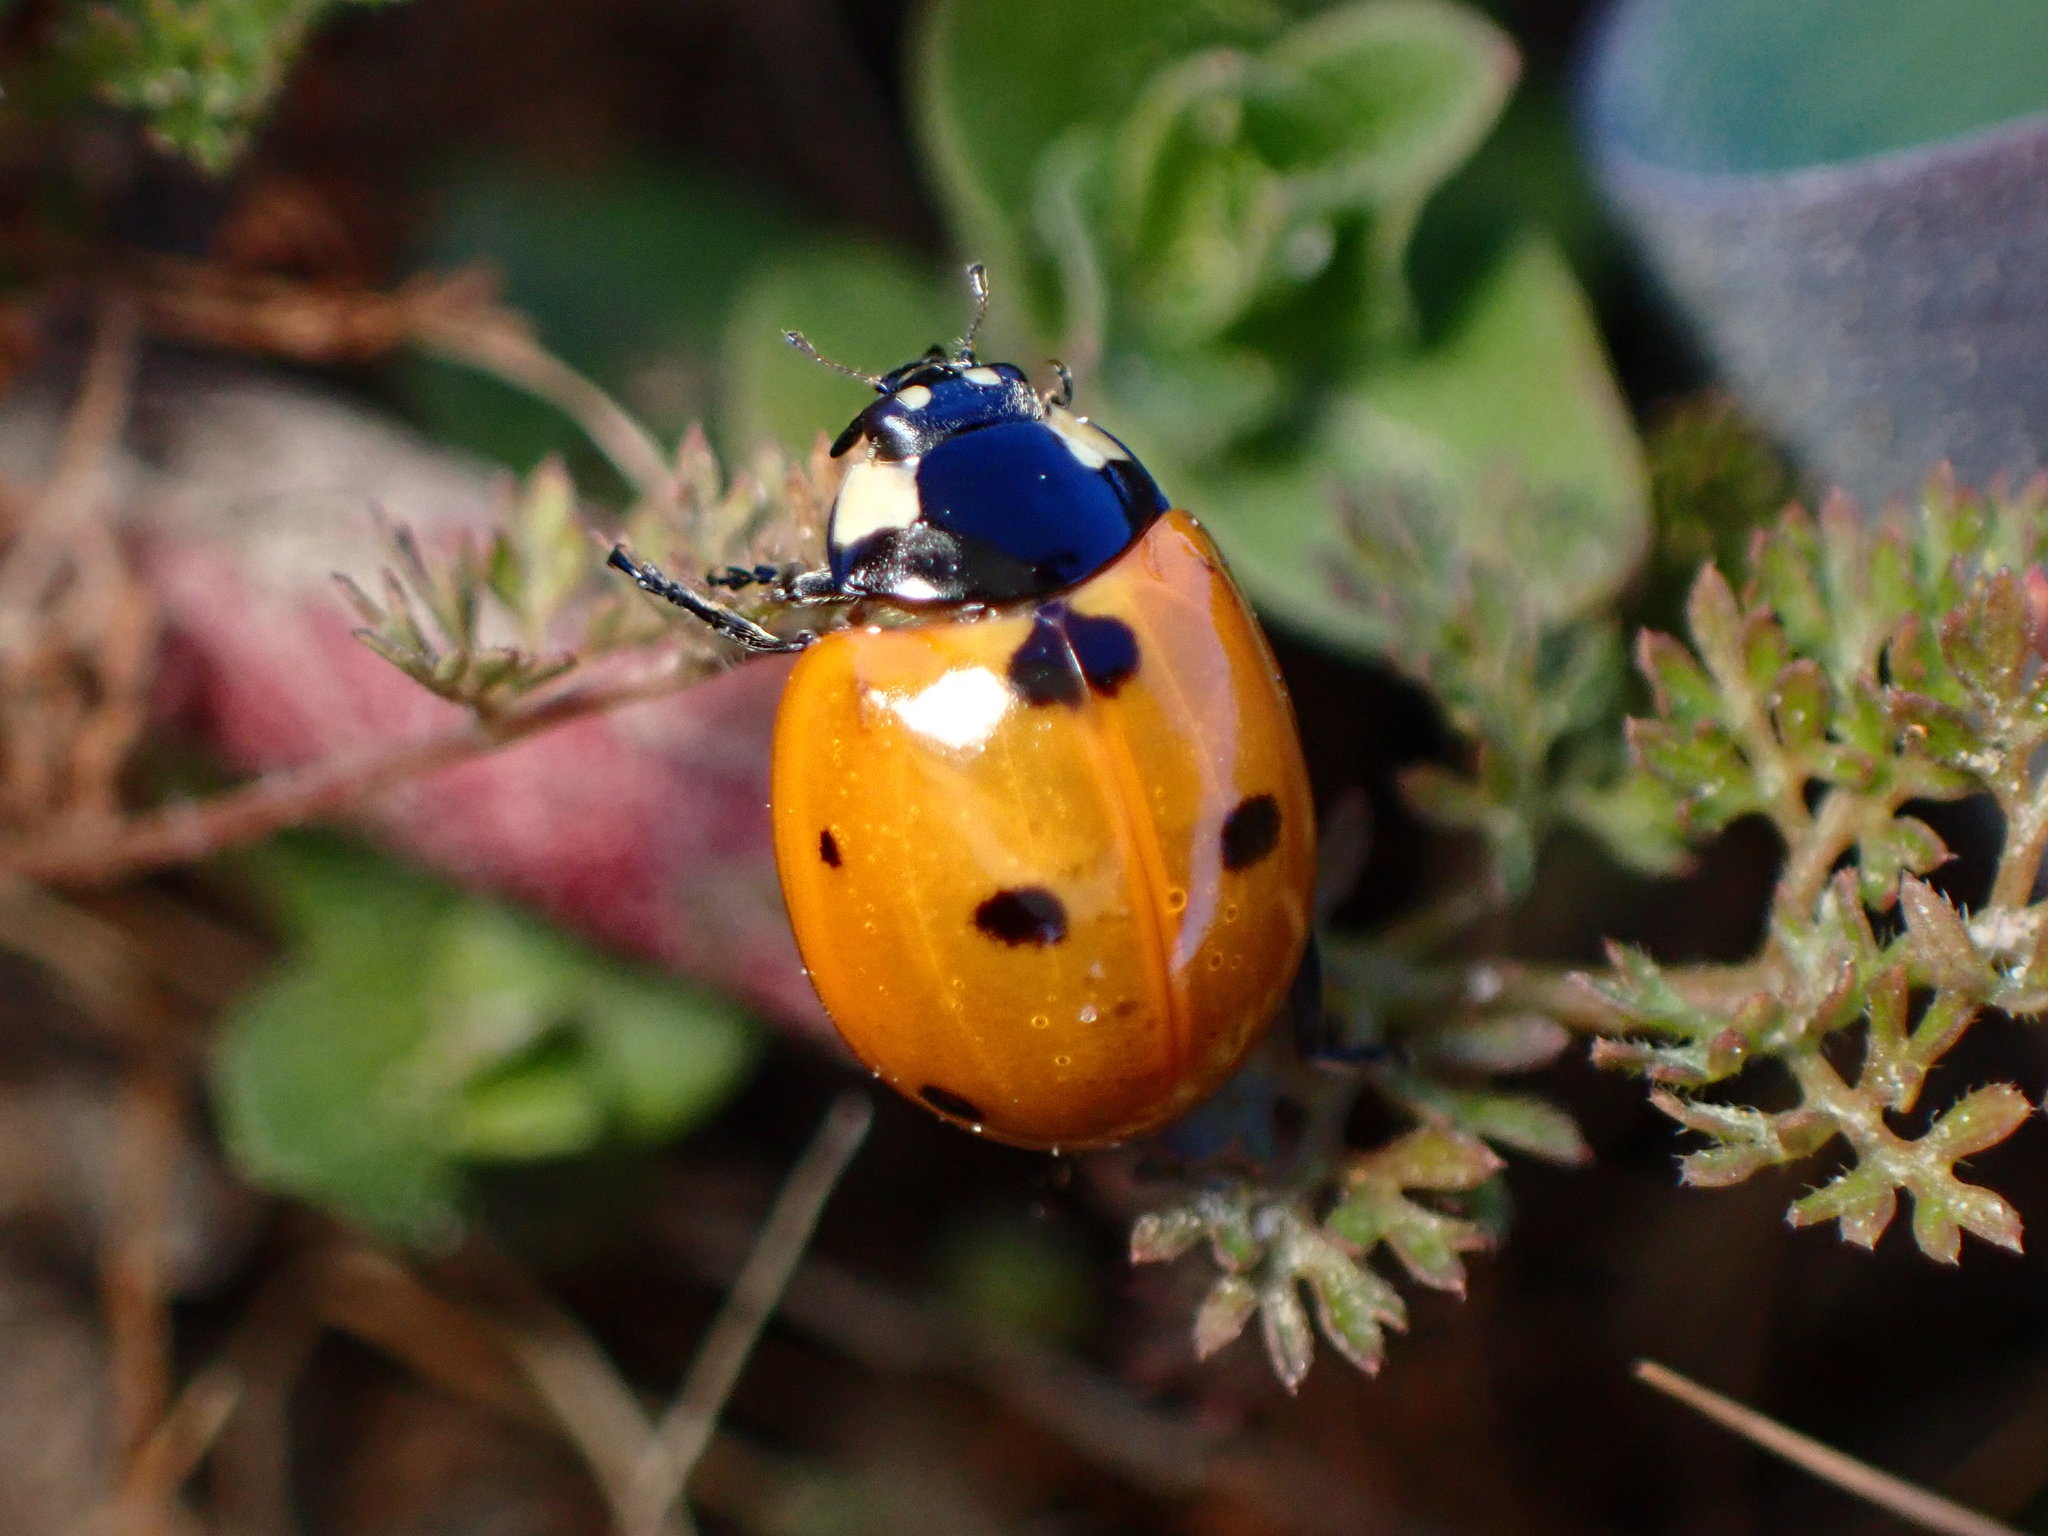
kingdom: Animalia
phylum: Arthropoda
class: Insecta
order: Coleoptera
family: Coccinellidae
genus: Coccinella
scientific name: Coccinella septempunctata
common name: Sevenspotted lady beetle
